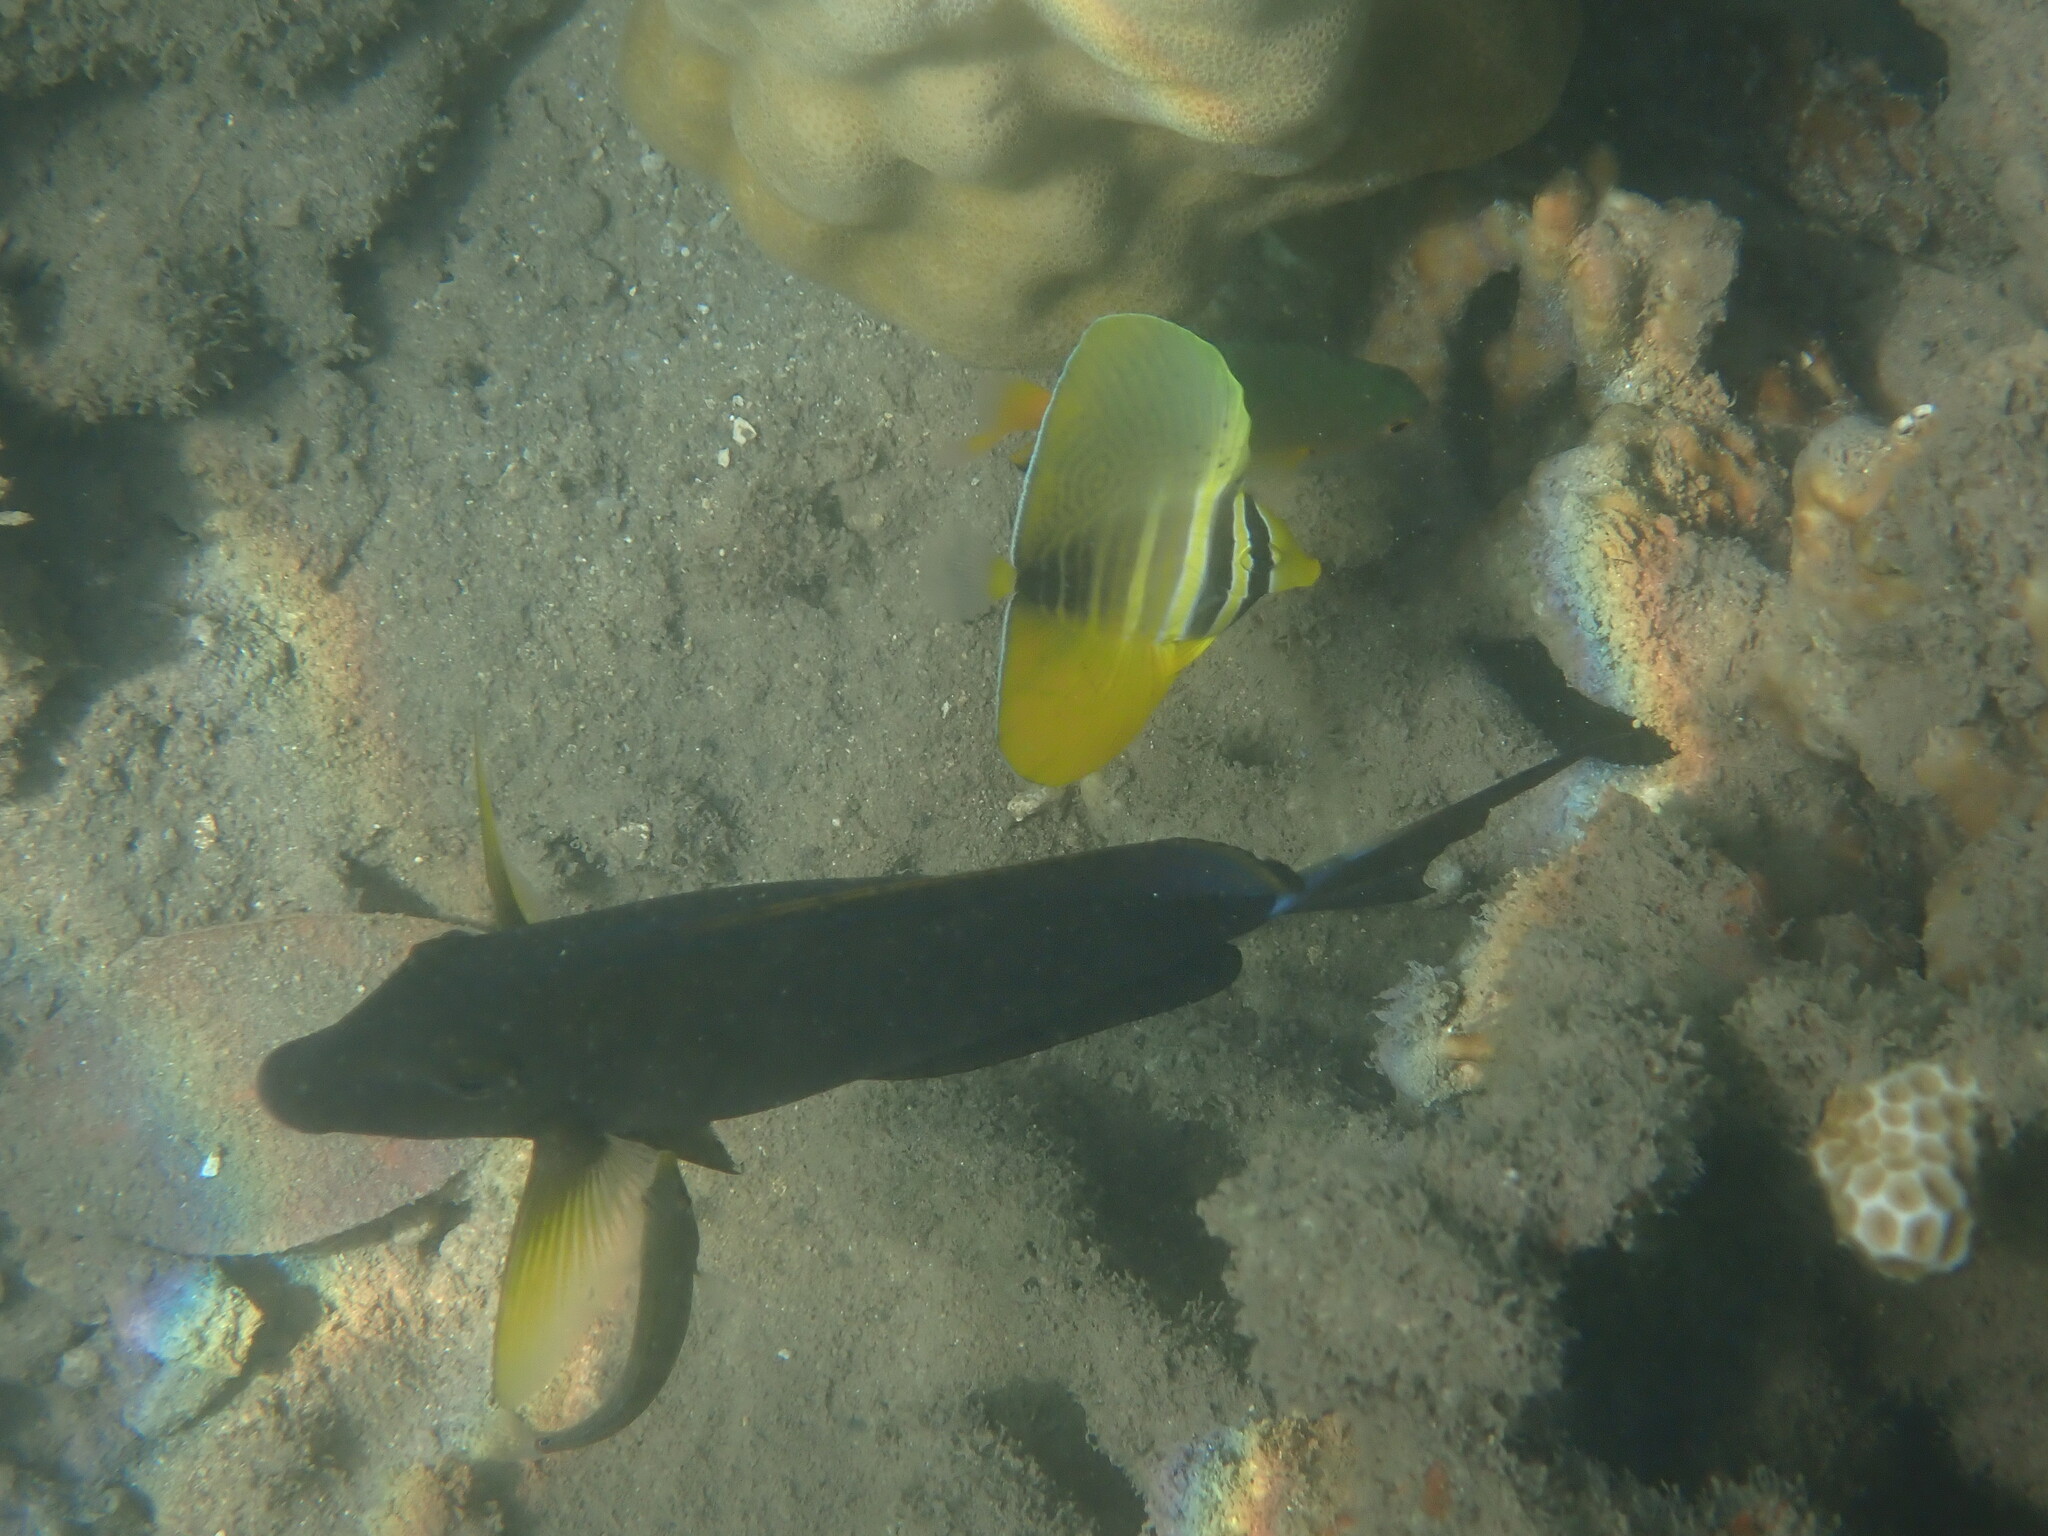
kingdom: Animalia
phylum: Chordata
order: Perciformes
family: Acanthuridae
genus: Acanthurus
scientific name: Acanthurus xanthopterus
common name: Cuvier's surgeonfish
